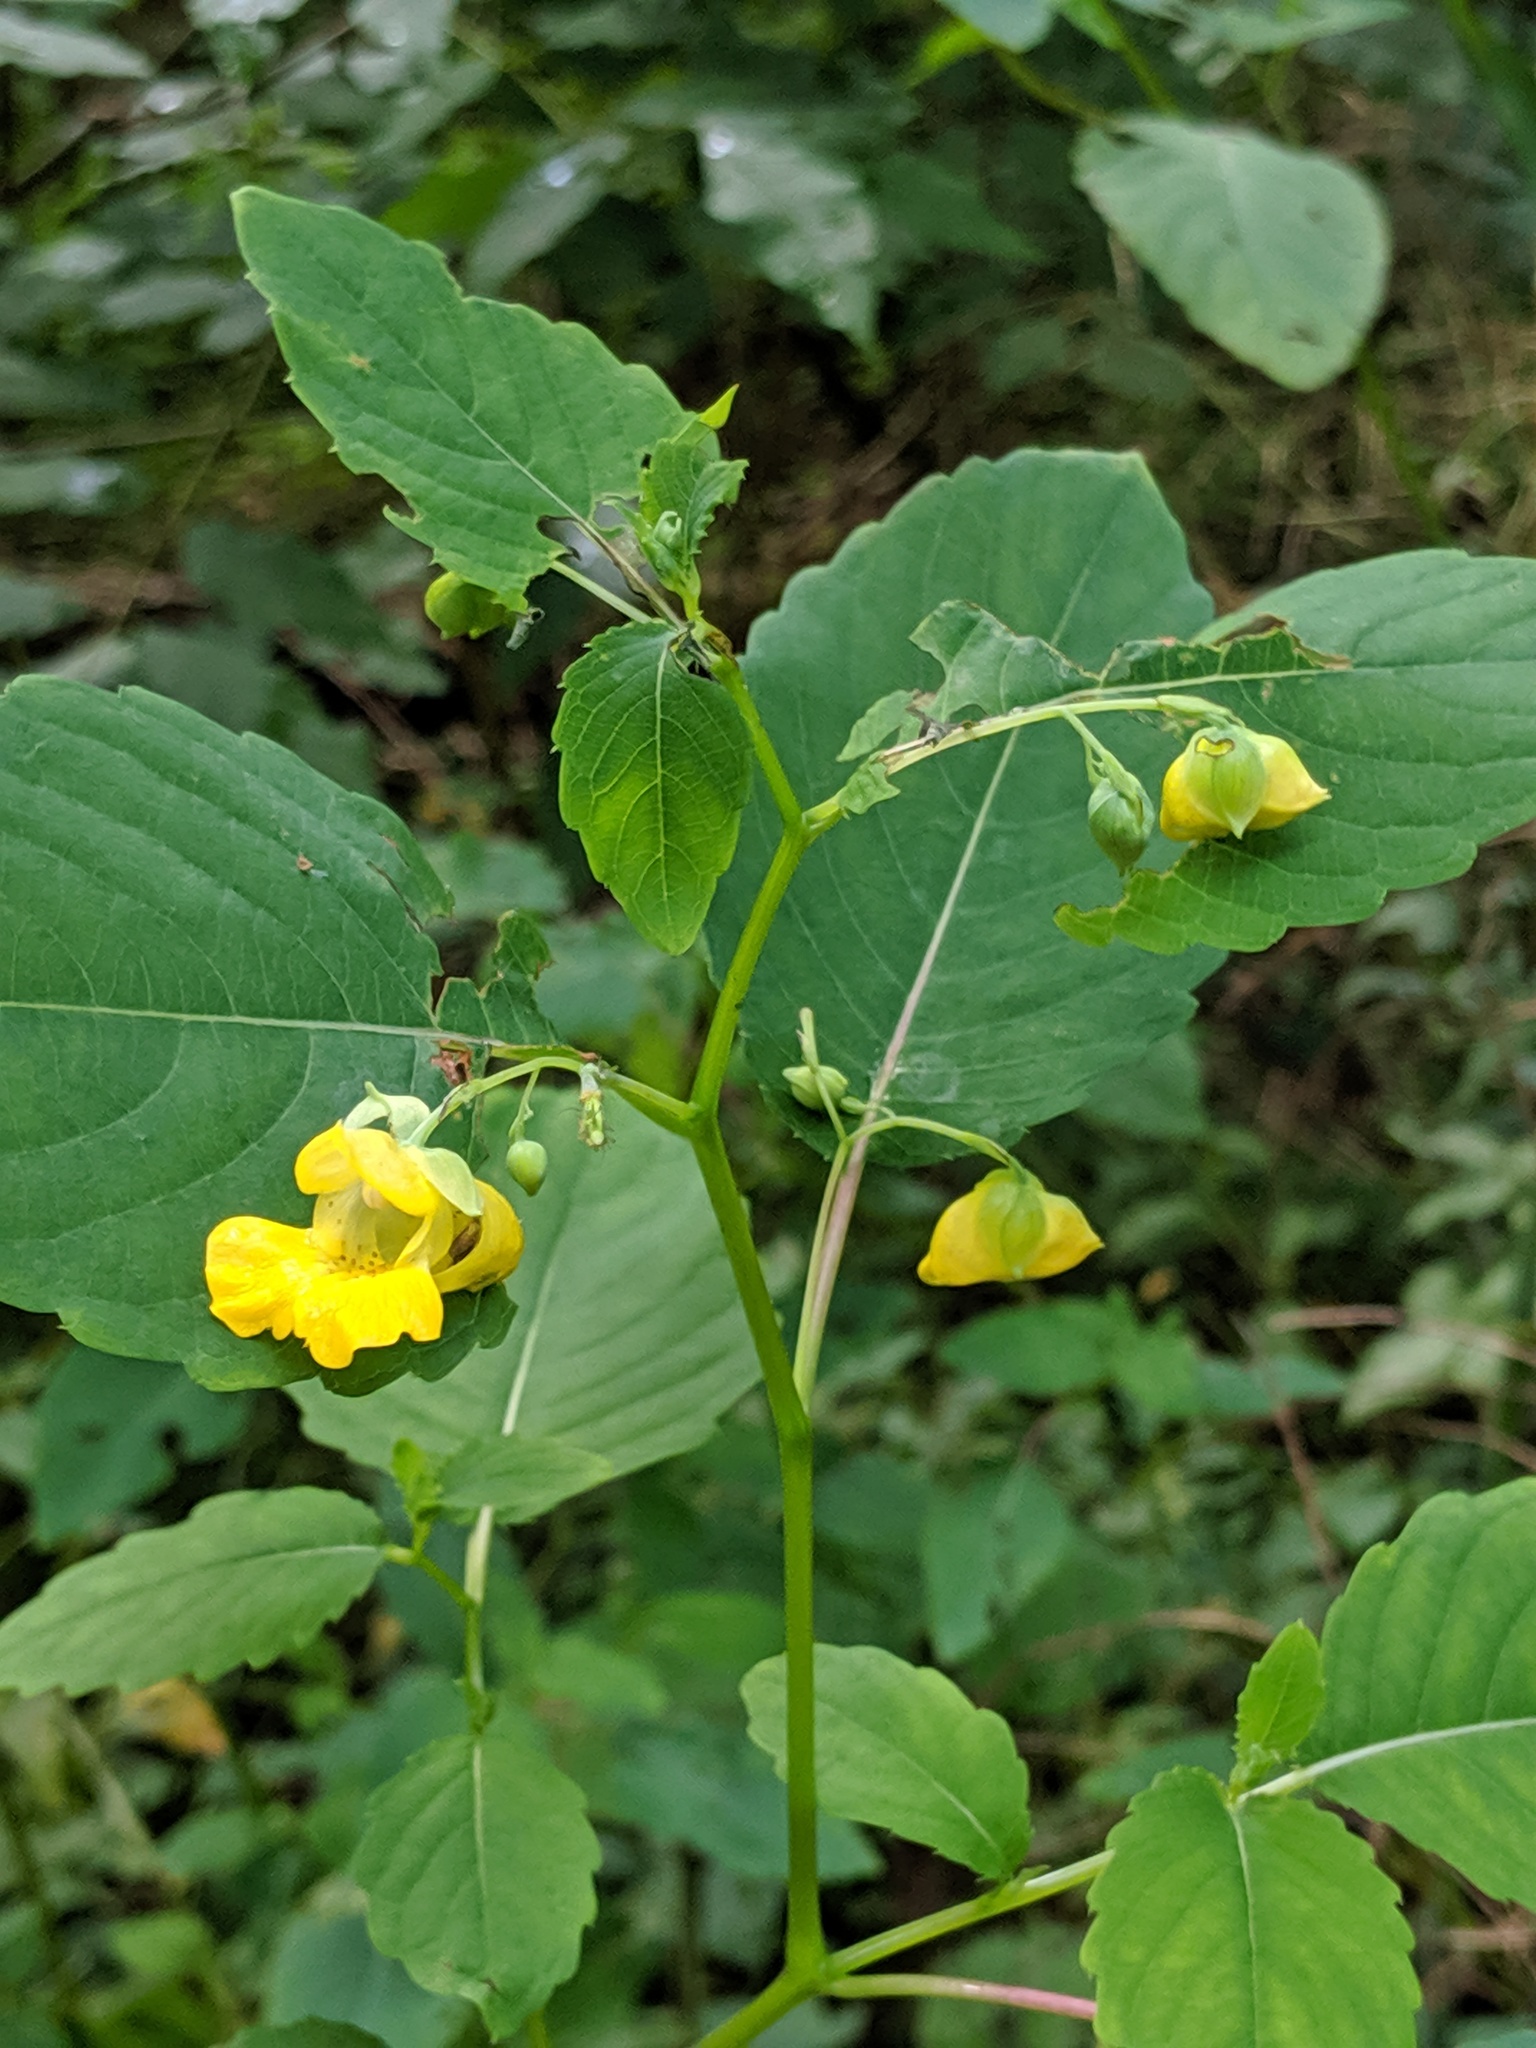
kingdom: Plantae
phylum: Tracheophyta
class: Magnoliopsida
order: Ericales
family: Balsaminaceae
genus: Impatiens
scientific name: Impatiens pallida
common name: Pale snapweed
